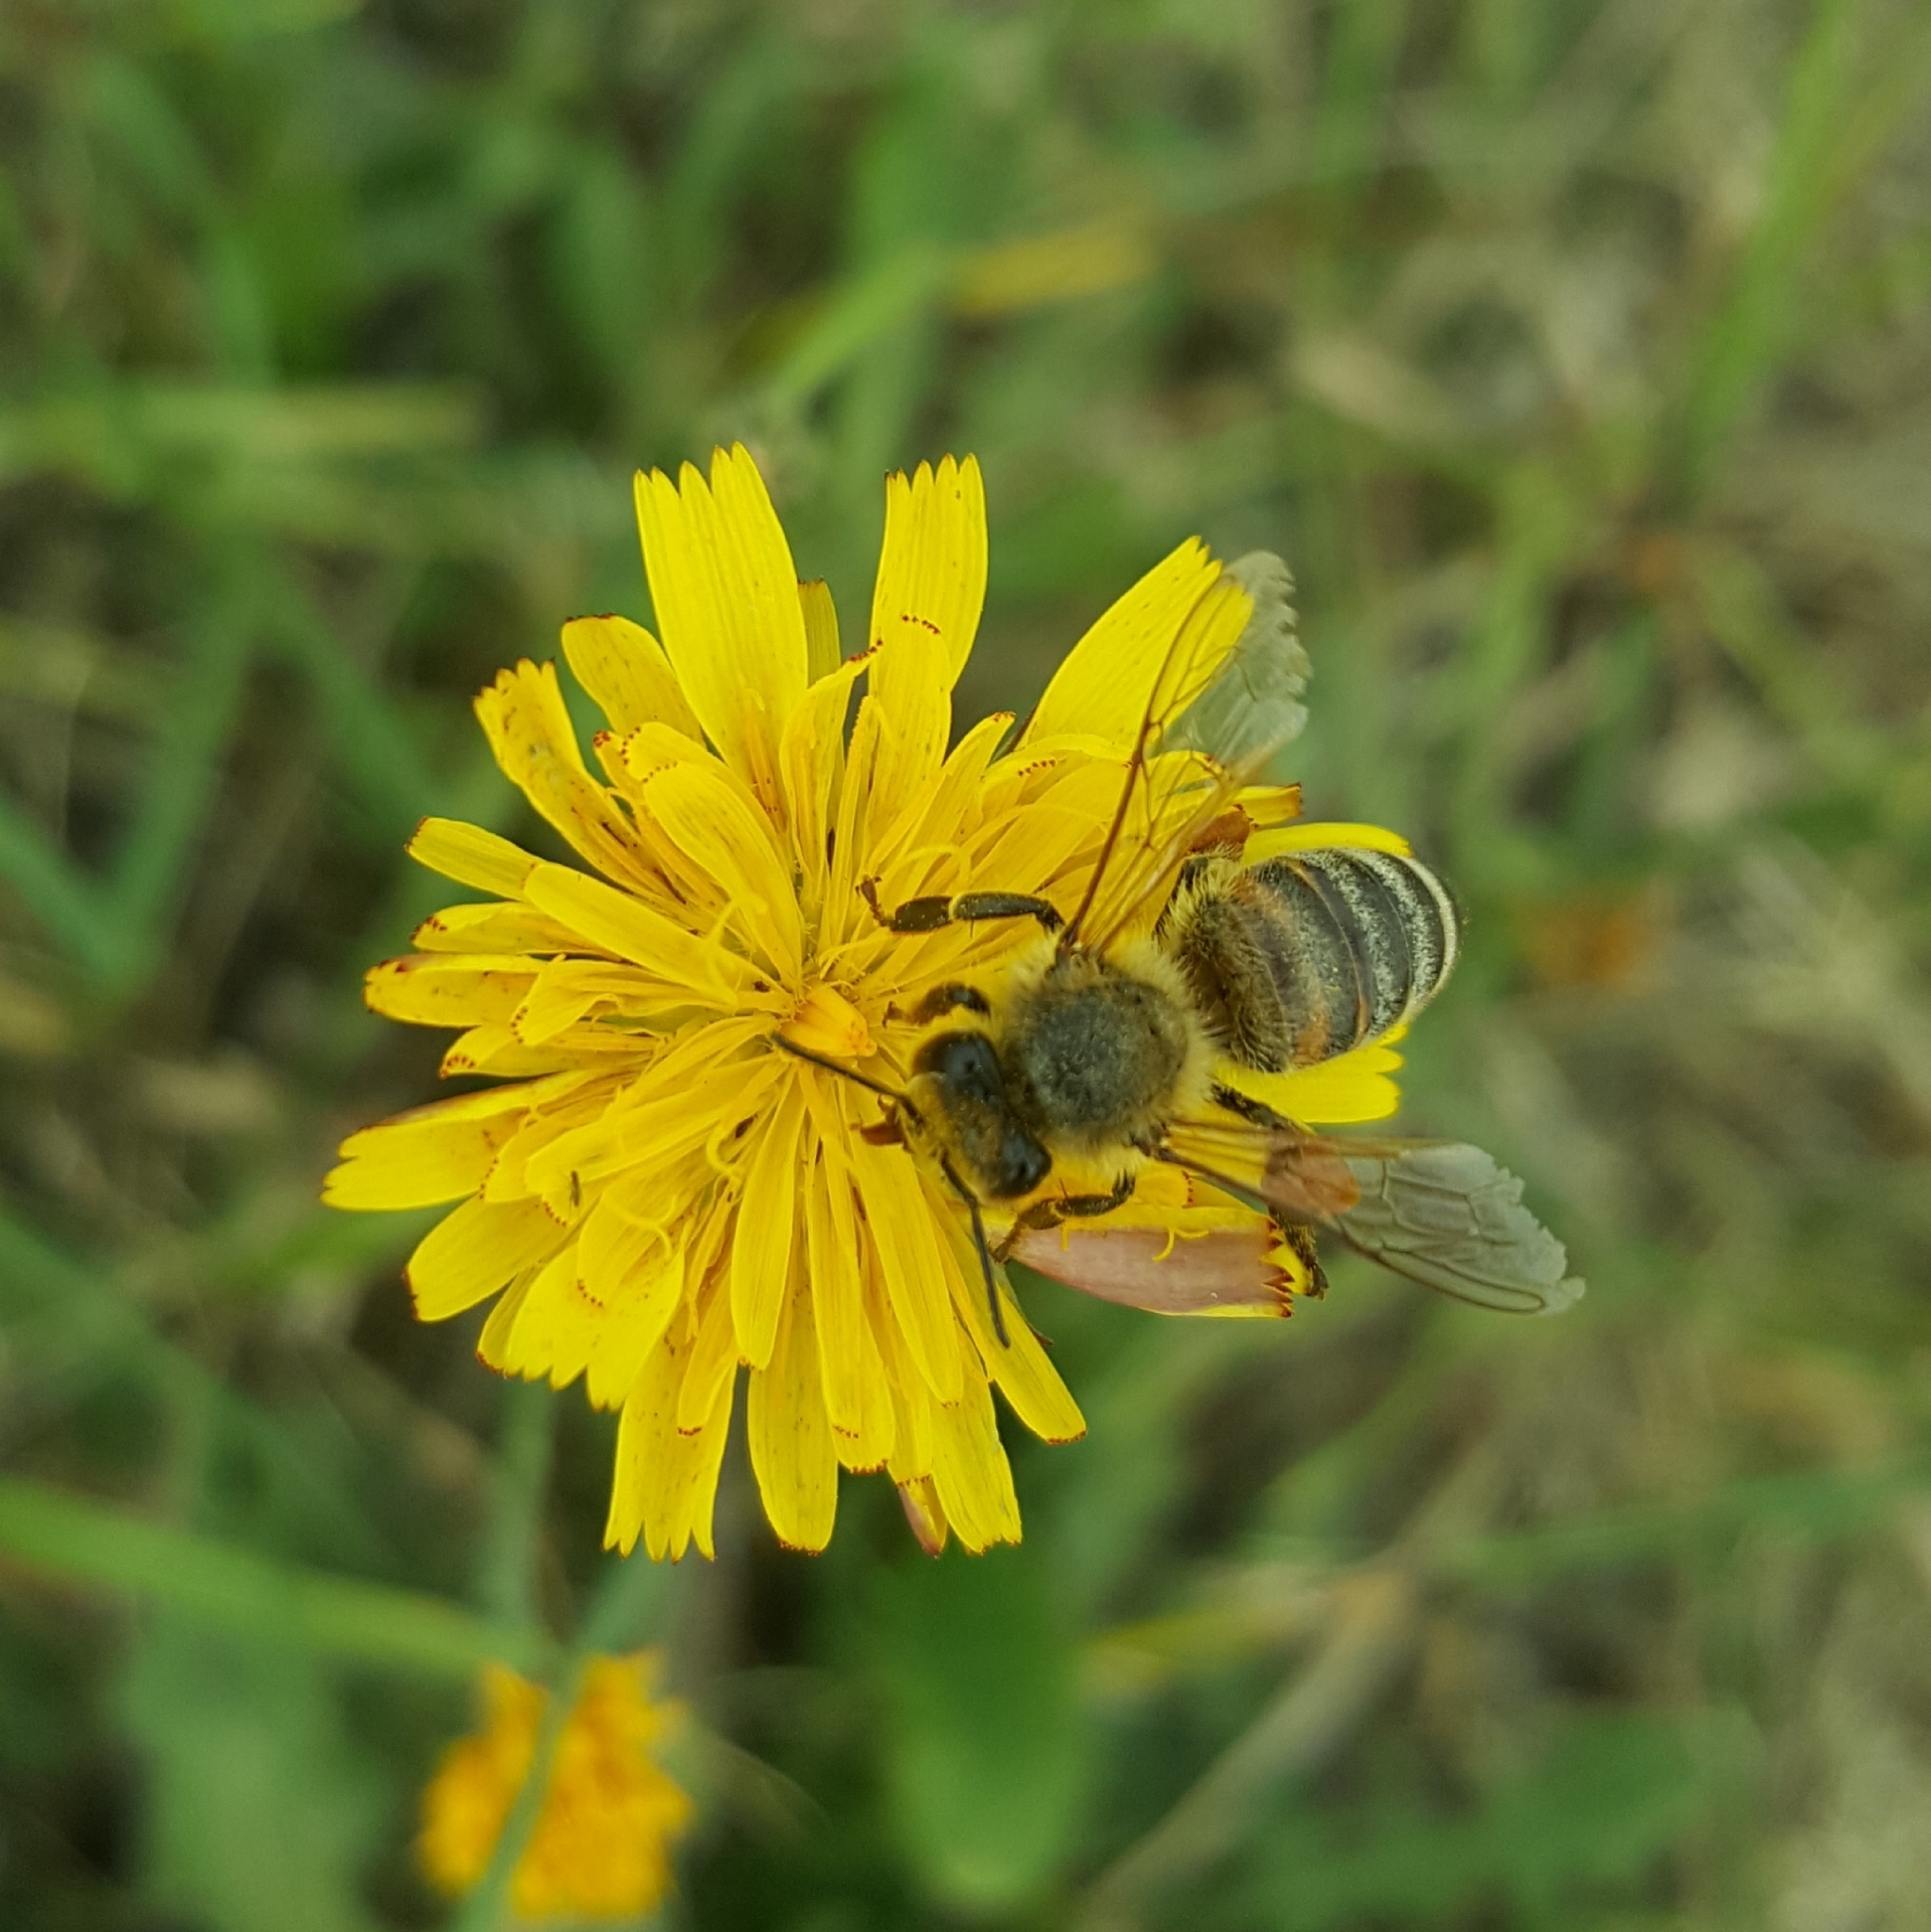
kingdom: Animalia
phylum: Arthropoda
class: Insecta
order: Hymenoptera
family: Apidae
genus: Apis
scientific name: Apis mellifera
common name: Honey bee
